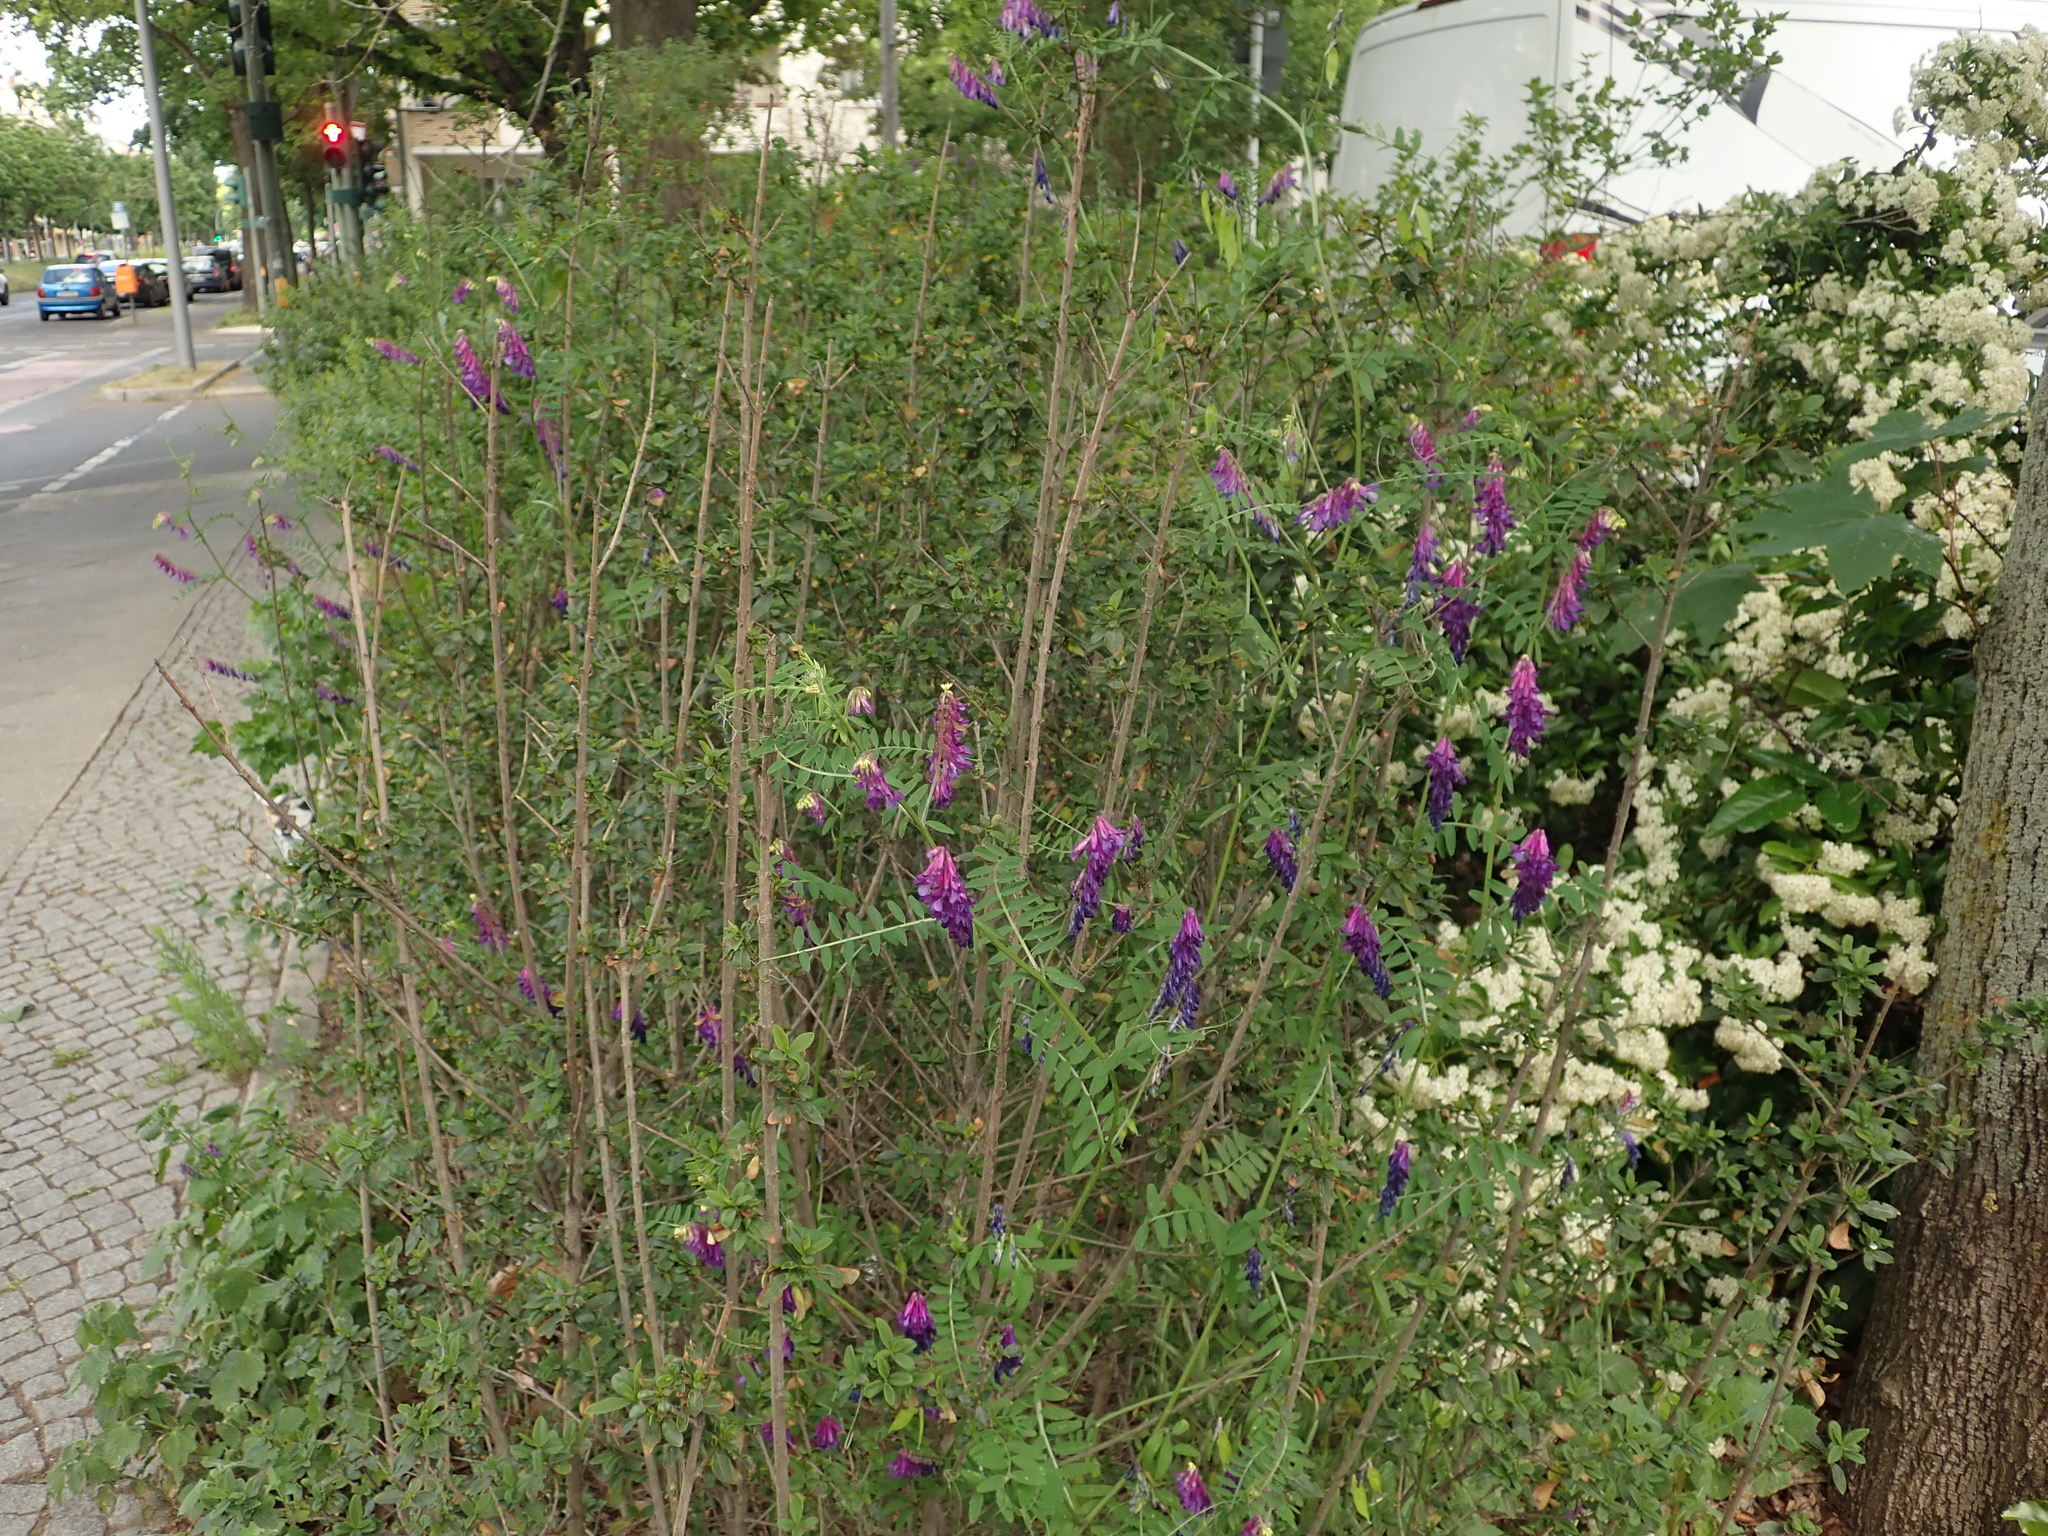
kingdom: Plantae
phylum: Tracheophyta
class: Magnoliopsida
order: Fabales
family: Fabaceae
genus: Vicia
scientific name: Vicia villosa
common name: Fodder vetch
